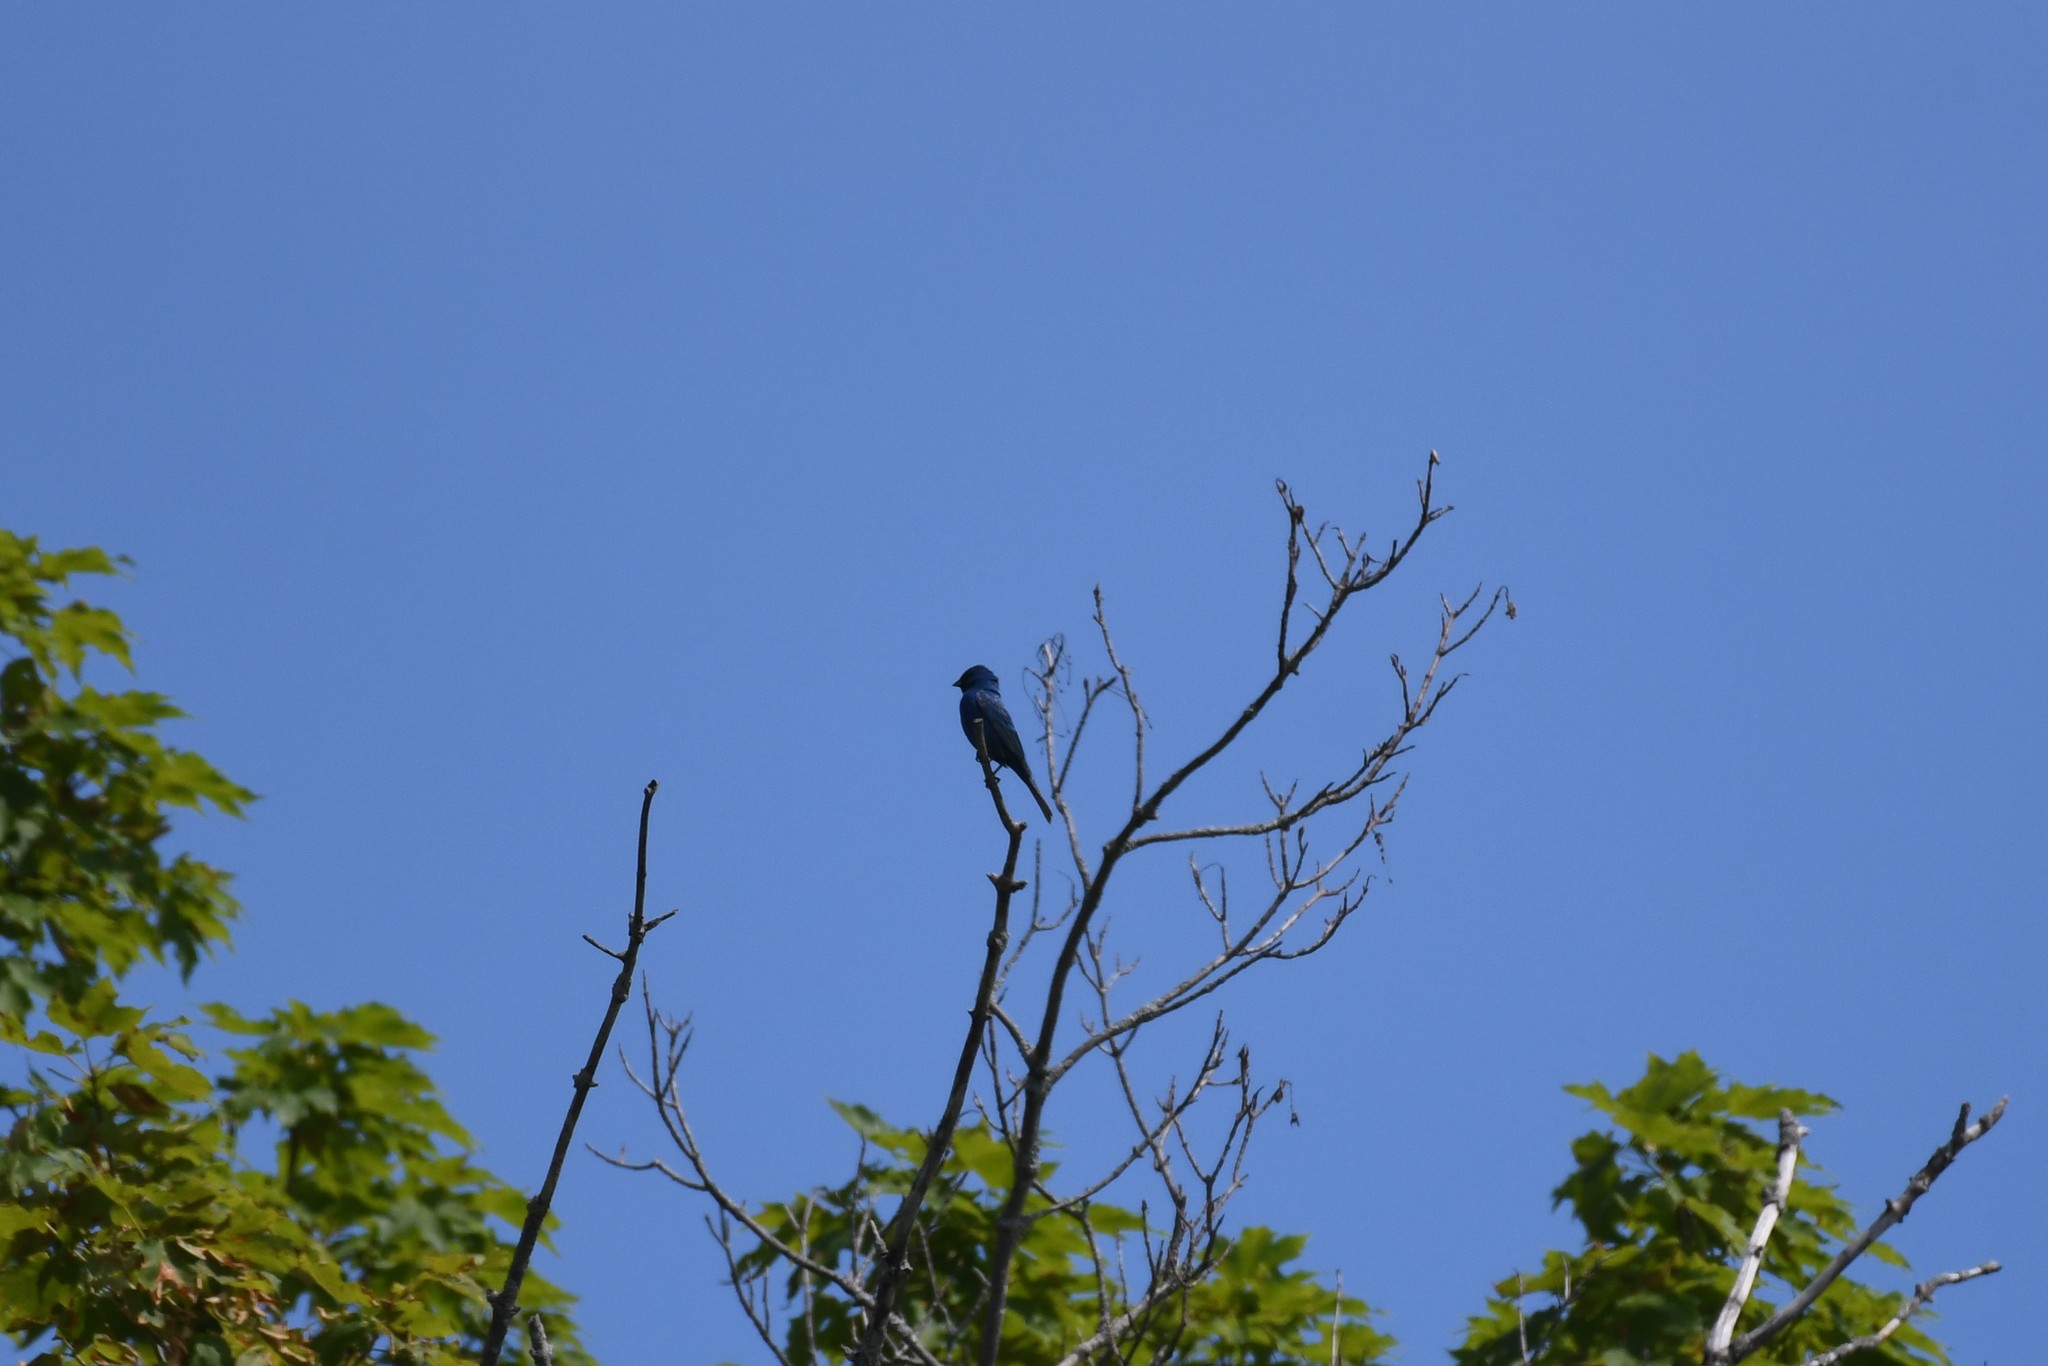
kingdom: Animalia
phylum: Chordata
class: Aves
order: Passeriformes
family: Cardinalidae
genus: Passerina
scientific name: Passerina cyanea
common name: Indigo bunting
